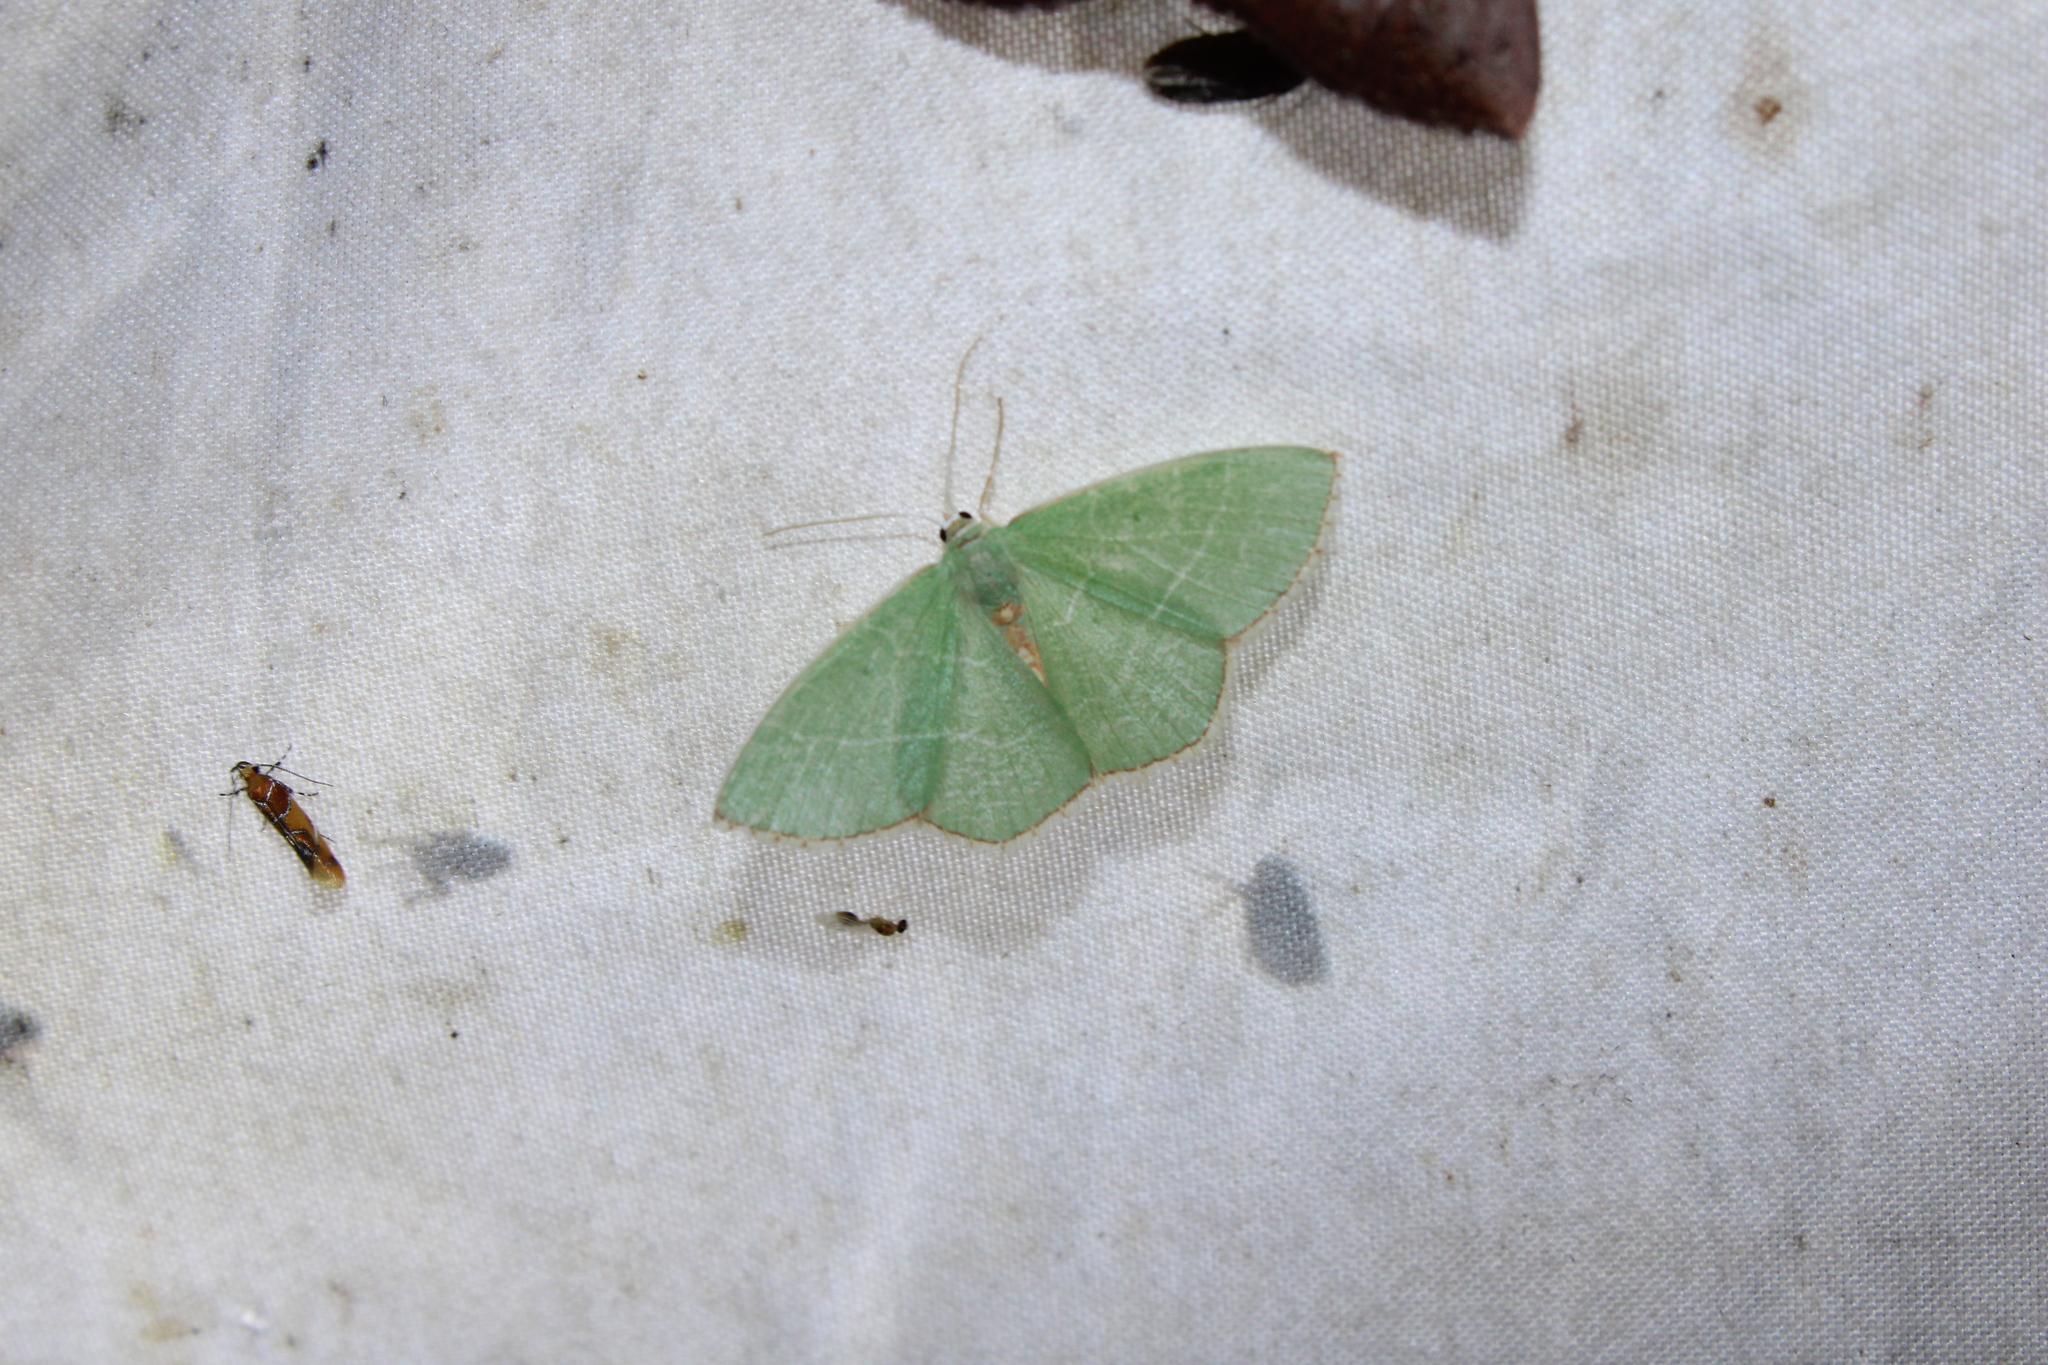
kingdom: Animalia
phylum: Arthropoda
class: Insecta
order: Lepidoptera
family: Geometridae
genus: Nemoria
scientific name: Nemoria bistriaria
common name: Red-fringed emerald
